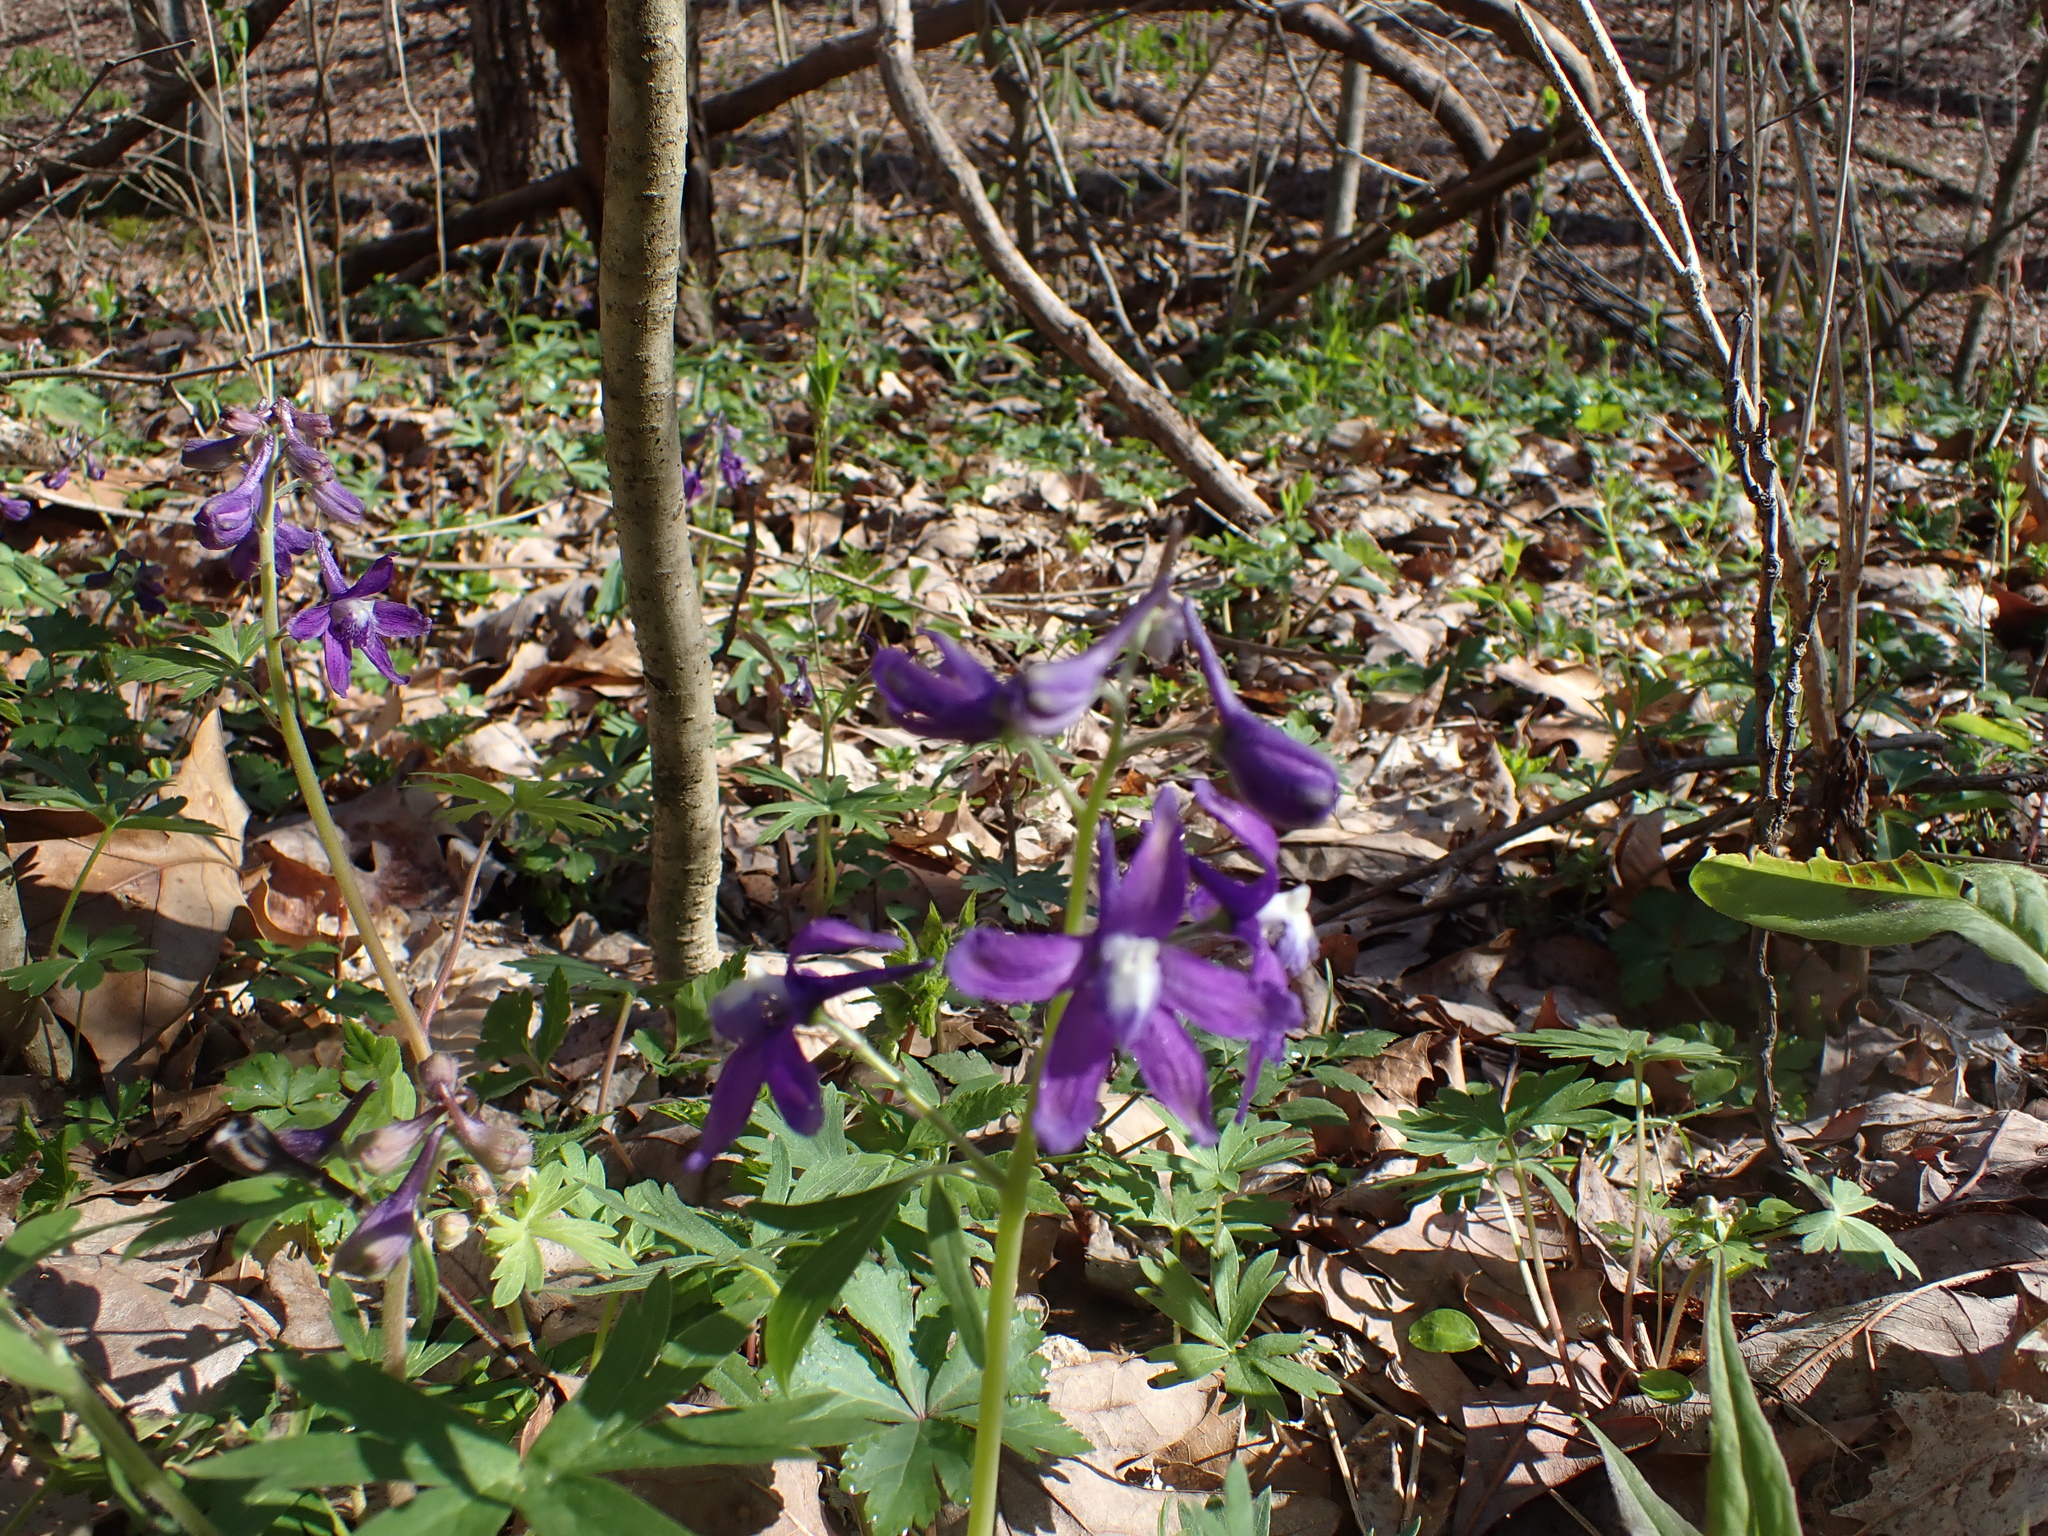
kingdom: Plantae
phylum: Tracheophyta
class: Magnoliopsida
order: Ranunculales
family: Ranunculaceae
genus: Delphinium
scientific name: Delphinium tricorne
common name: Dwarf larkspur
